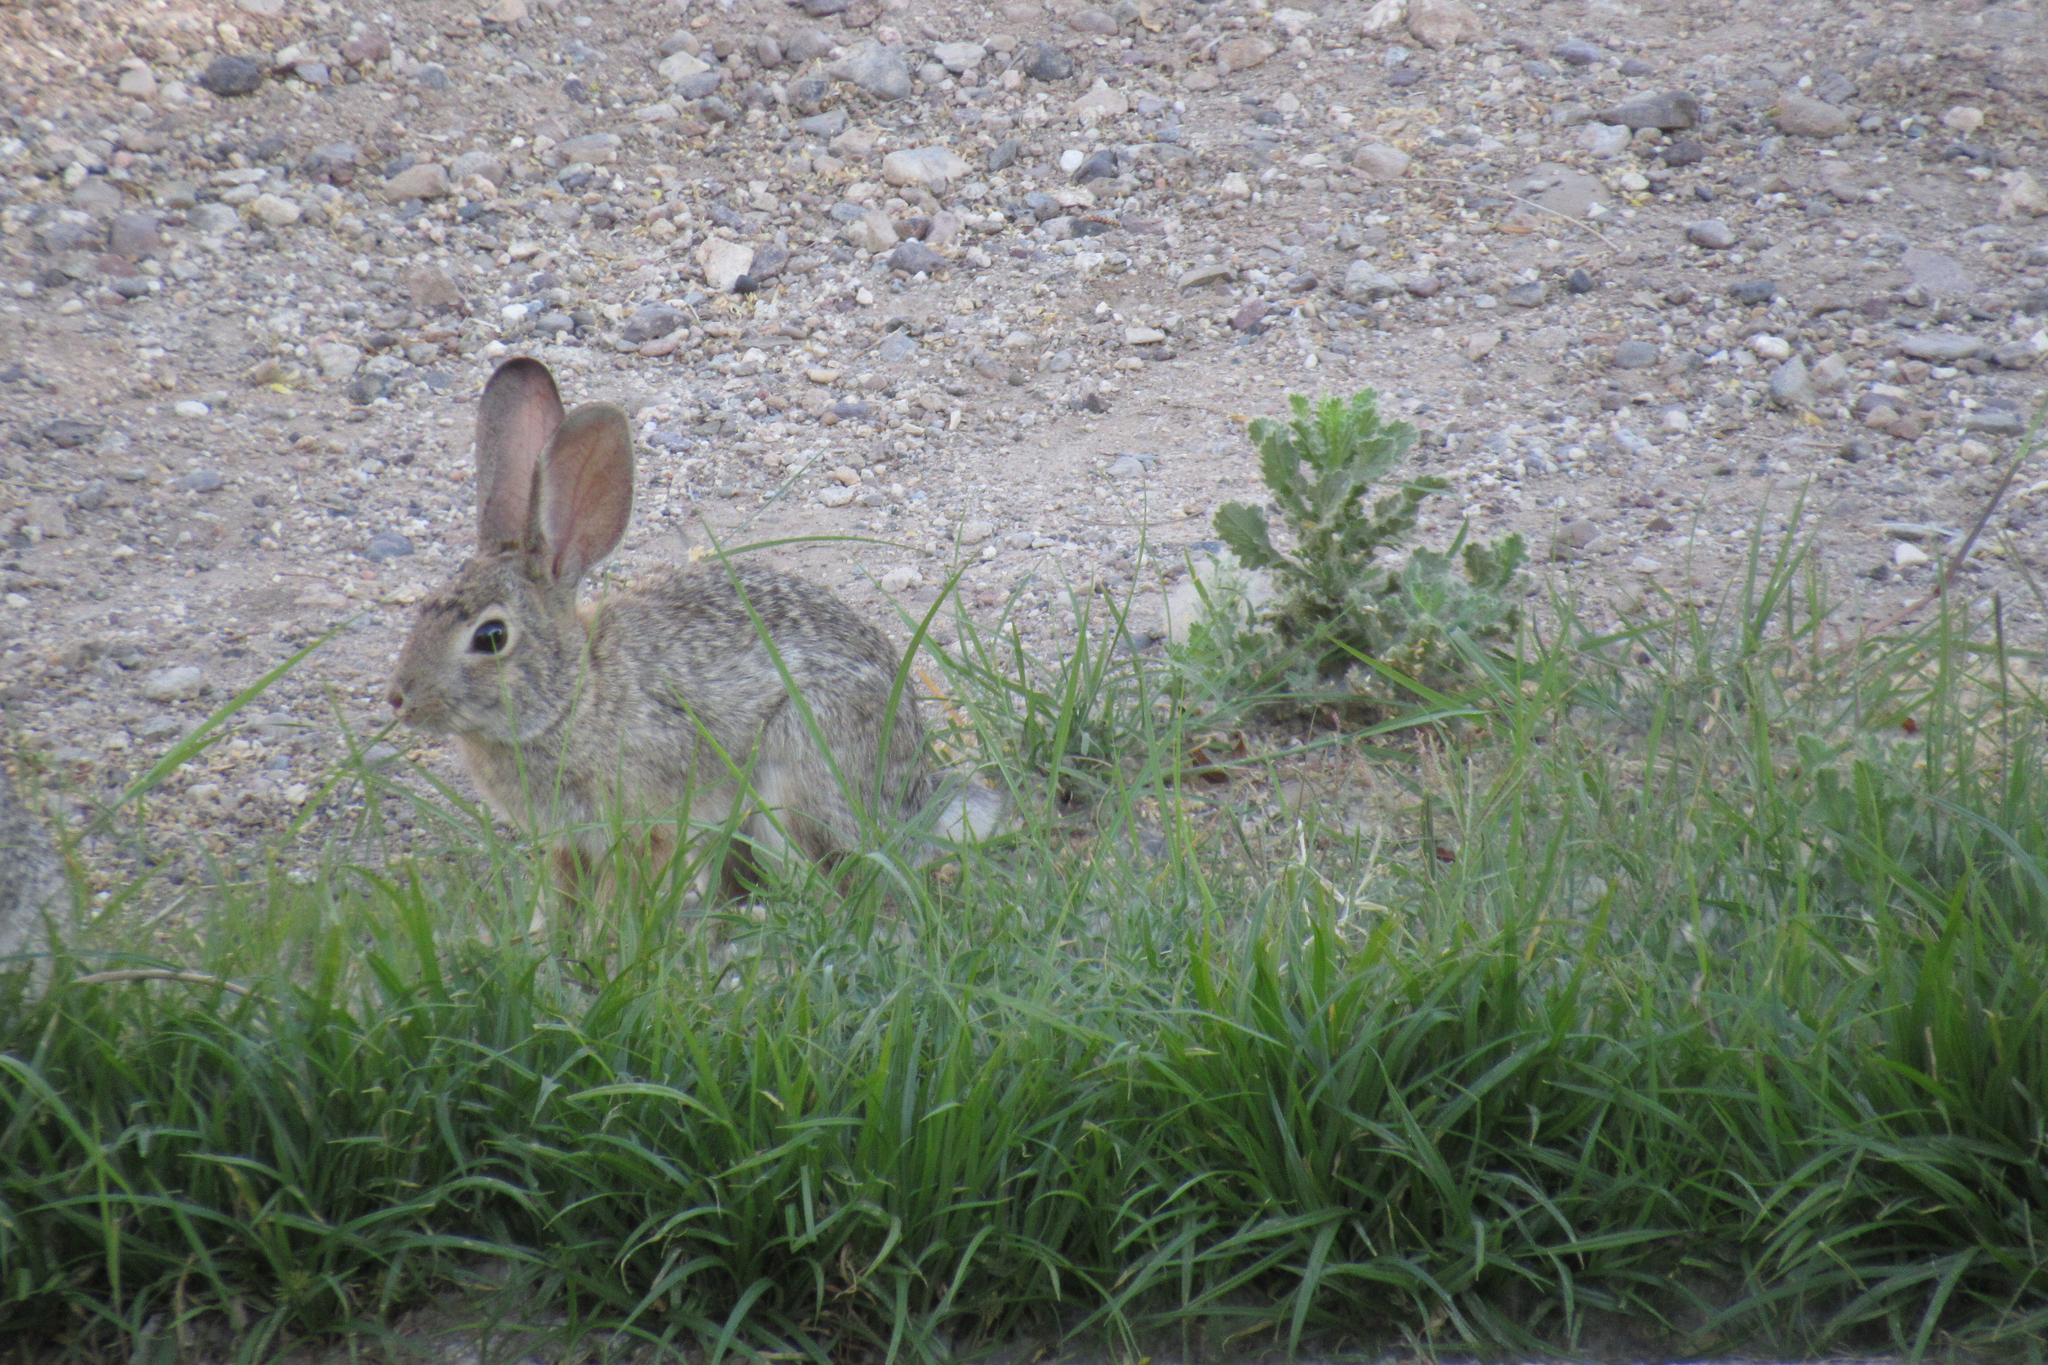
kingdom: Animalia
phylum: Chordata
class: Mammalia
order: Lagomorpha
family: Leporidae
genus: Sylvilagus
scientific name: Sylvilagus audubonii
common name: Desert cottontail
